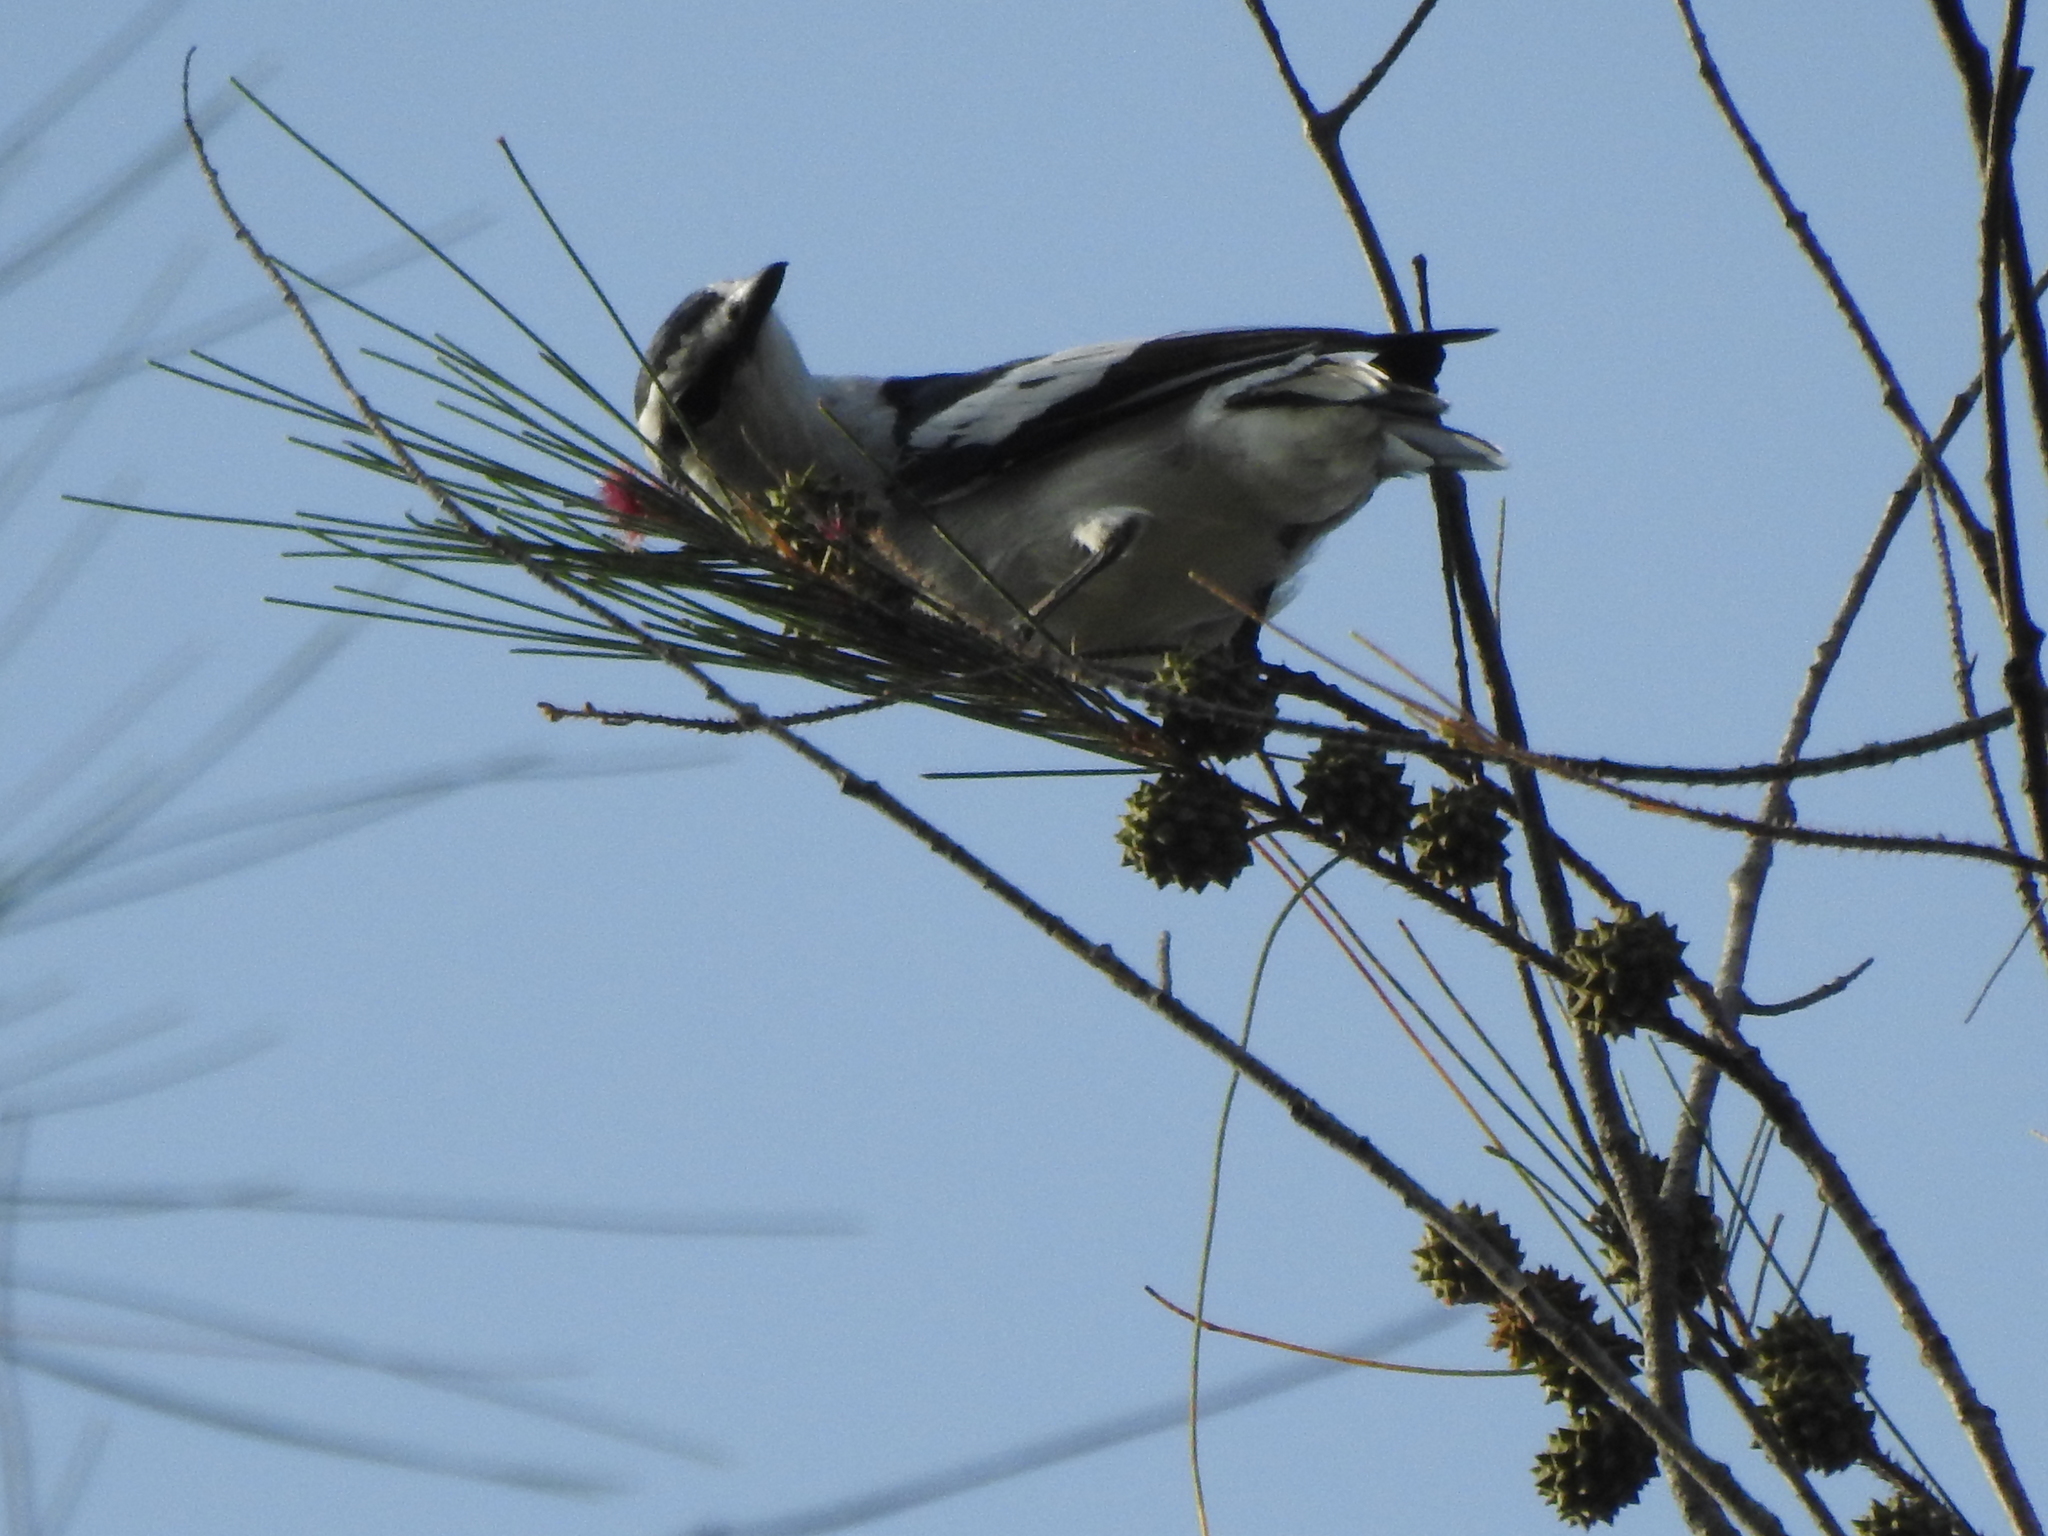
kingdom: Animalia
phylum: Chordata
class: Aves
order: Passeriformes
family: Campephagidae
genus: Lalage
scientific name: Lalage nigra
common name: Pied triller
